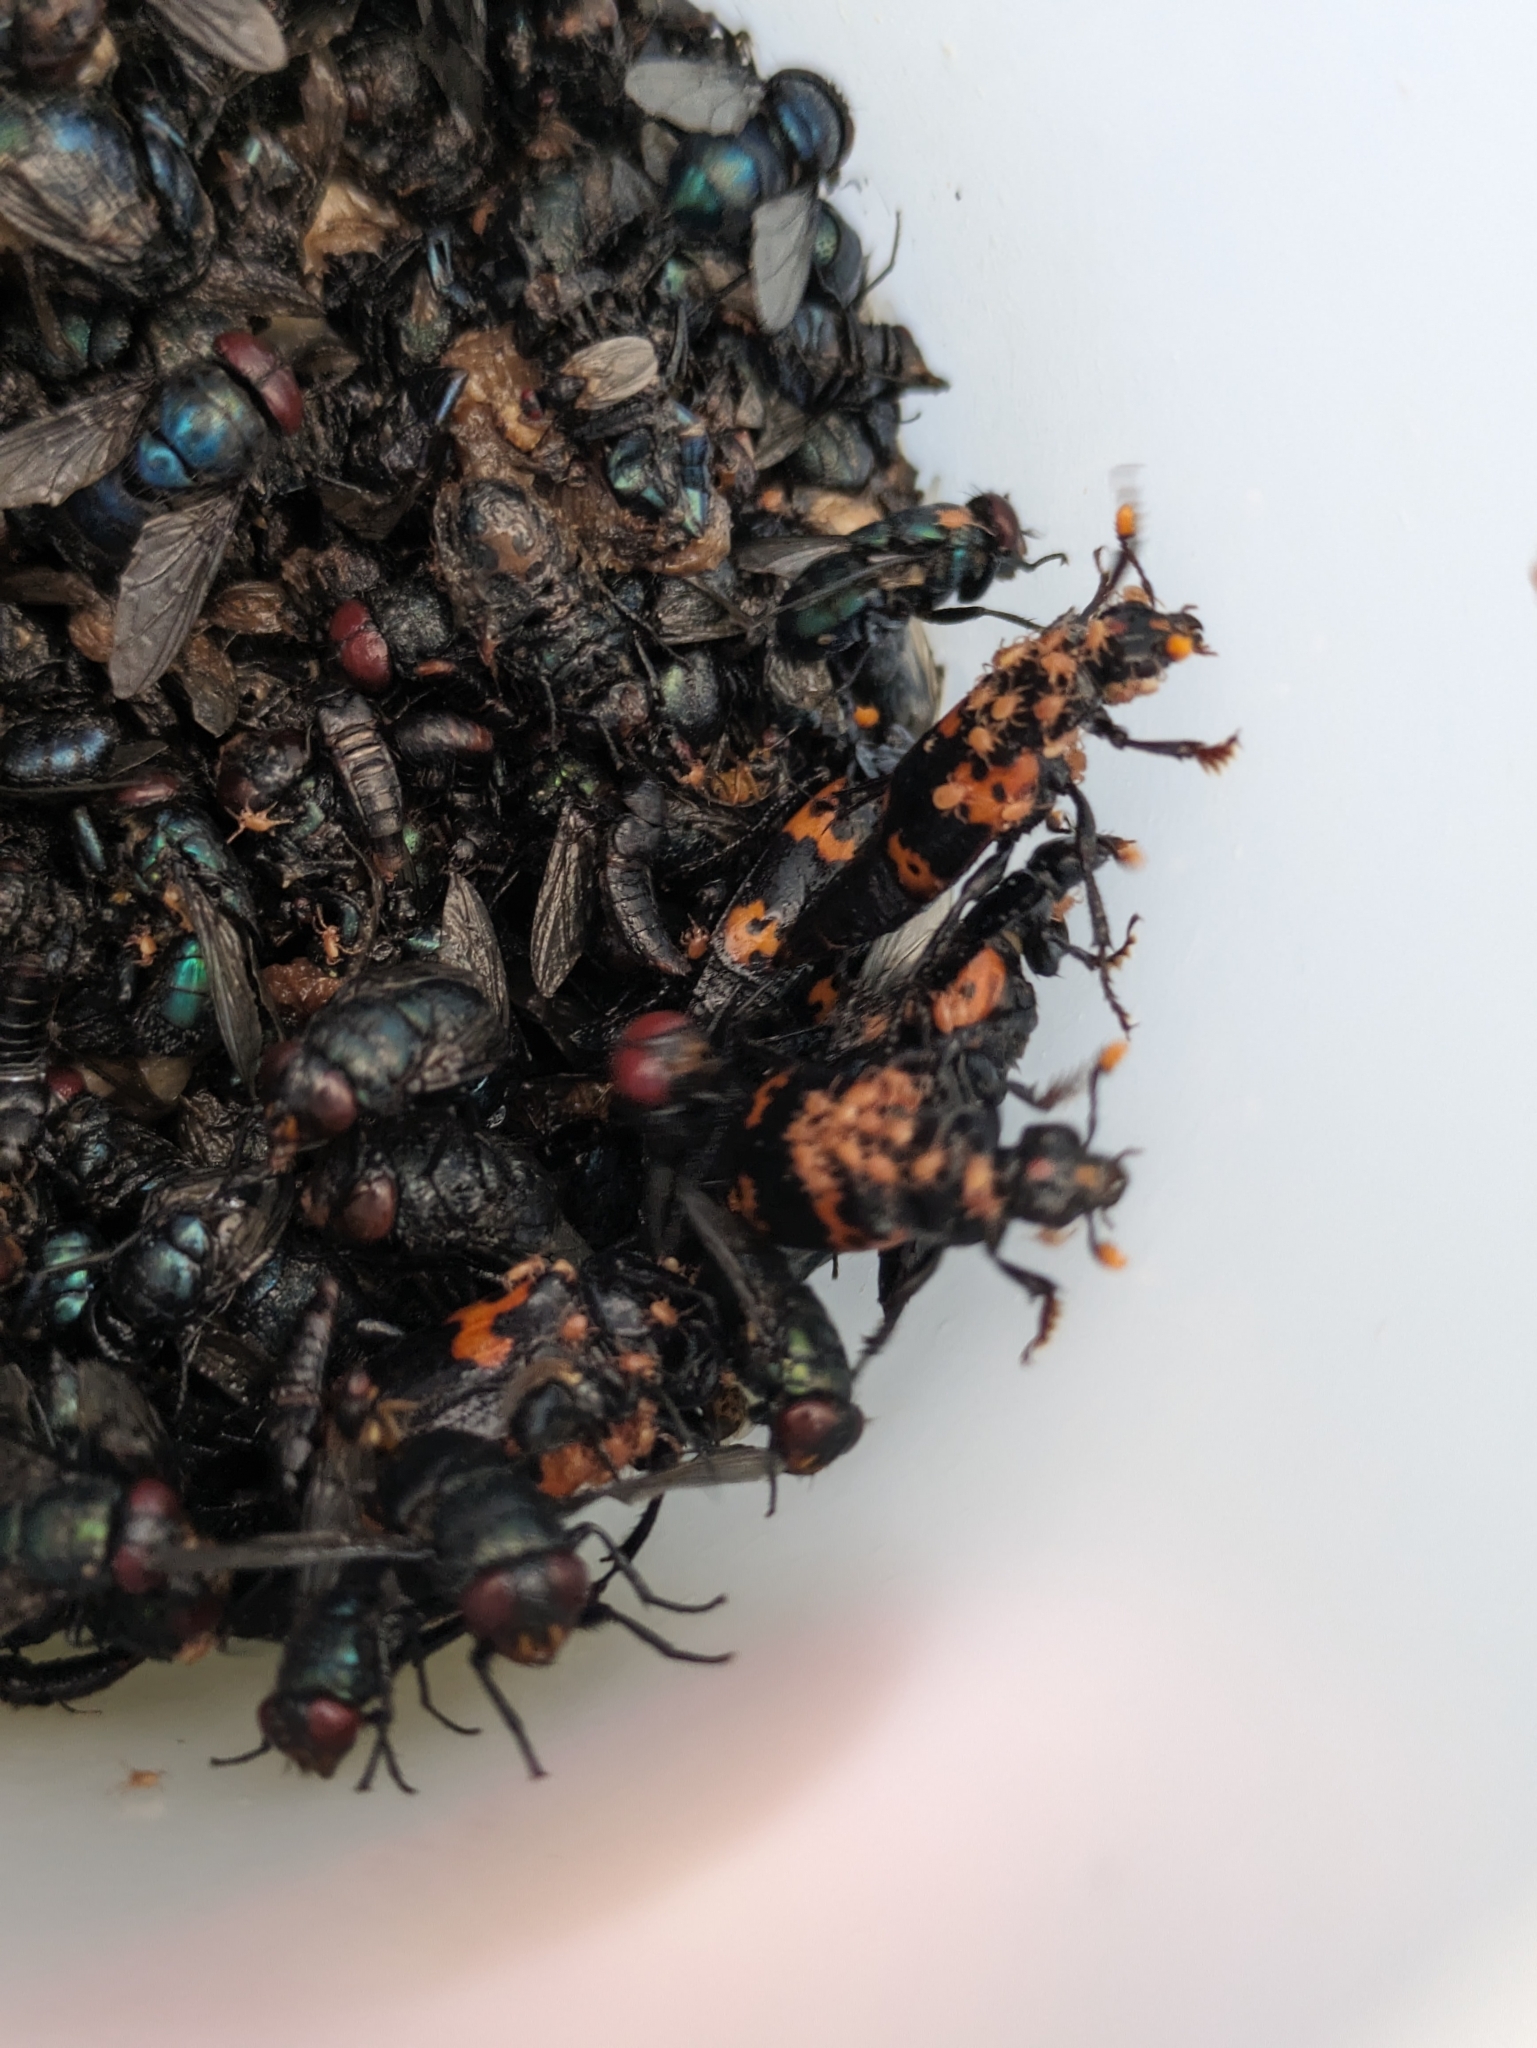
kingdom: Animalia
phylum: Arthropoda
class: Insecta
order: Coleoptera
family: Staphylinidae
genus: Nicrophorus
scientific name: Nicrophorus nepalensis
